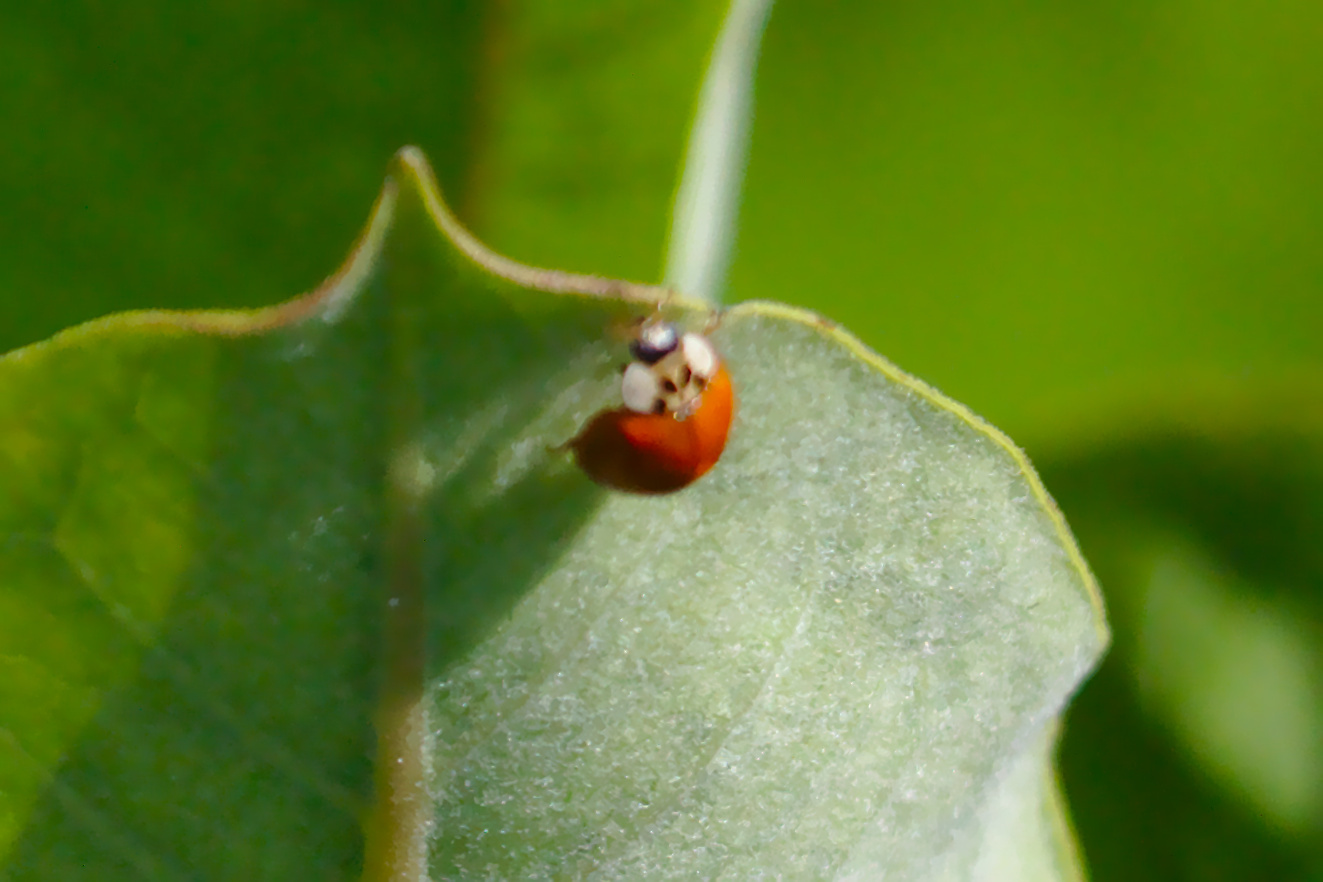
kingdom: Animalia
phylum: Arthropoda
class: Insecta
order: Coleoptera
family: Coccinellidae
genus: Harmonia
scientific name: Harmonia axyridis
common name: Harlequin ladybird
